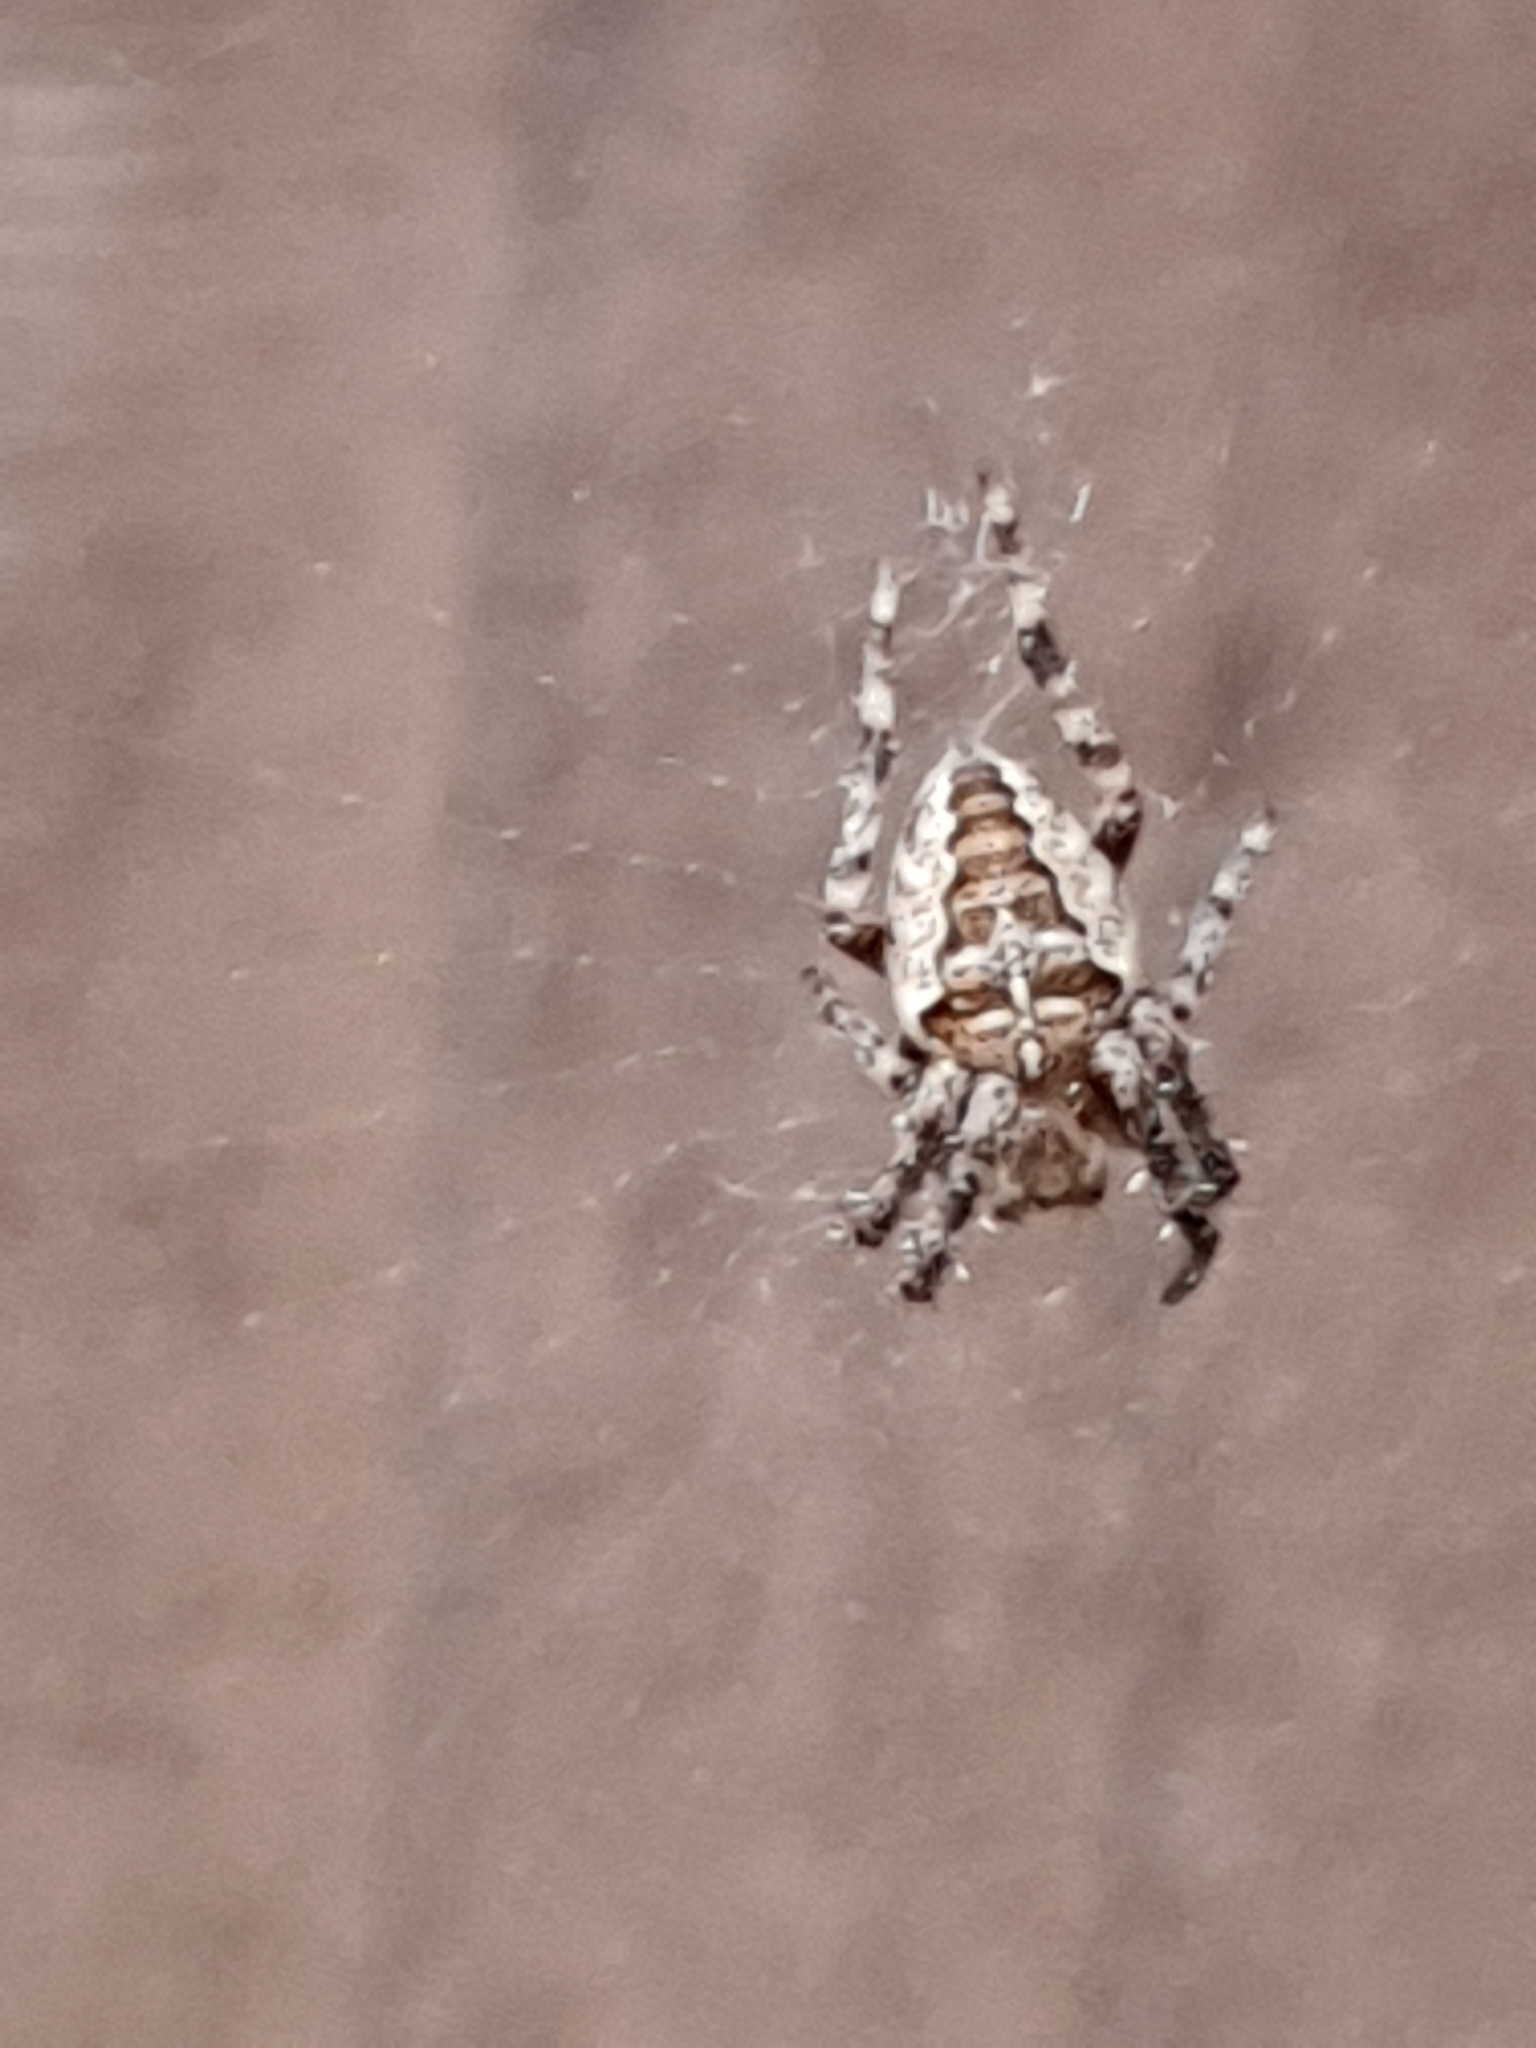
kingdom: Animalia
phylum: Arthropoda
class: Arachnida
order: Araneae
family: Araneidae
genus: Araneus
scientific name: Araneus diadematus
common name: Cross orbweaver
